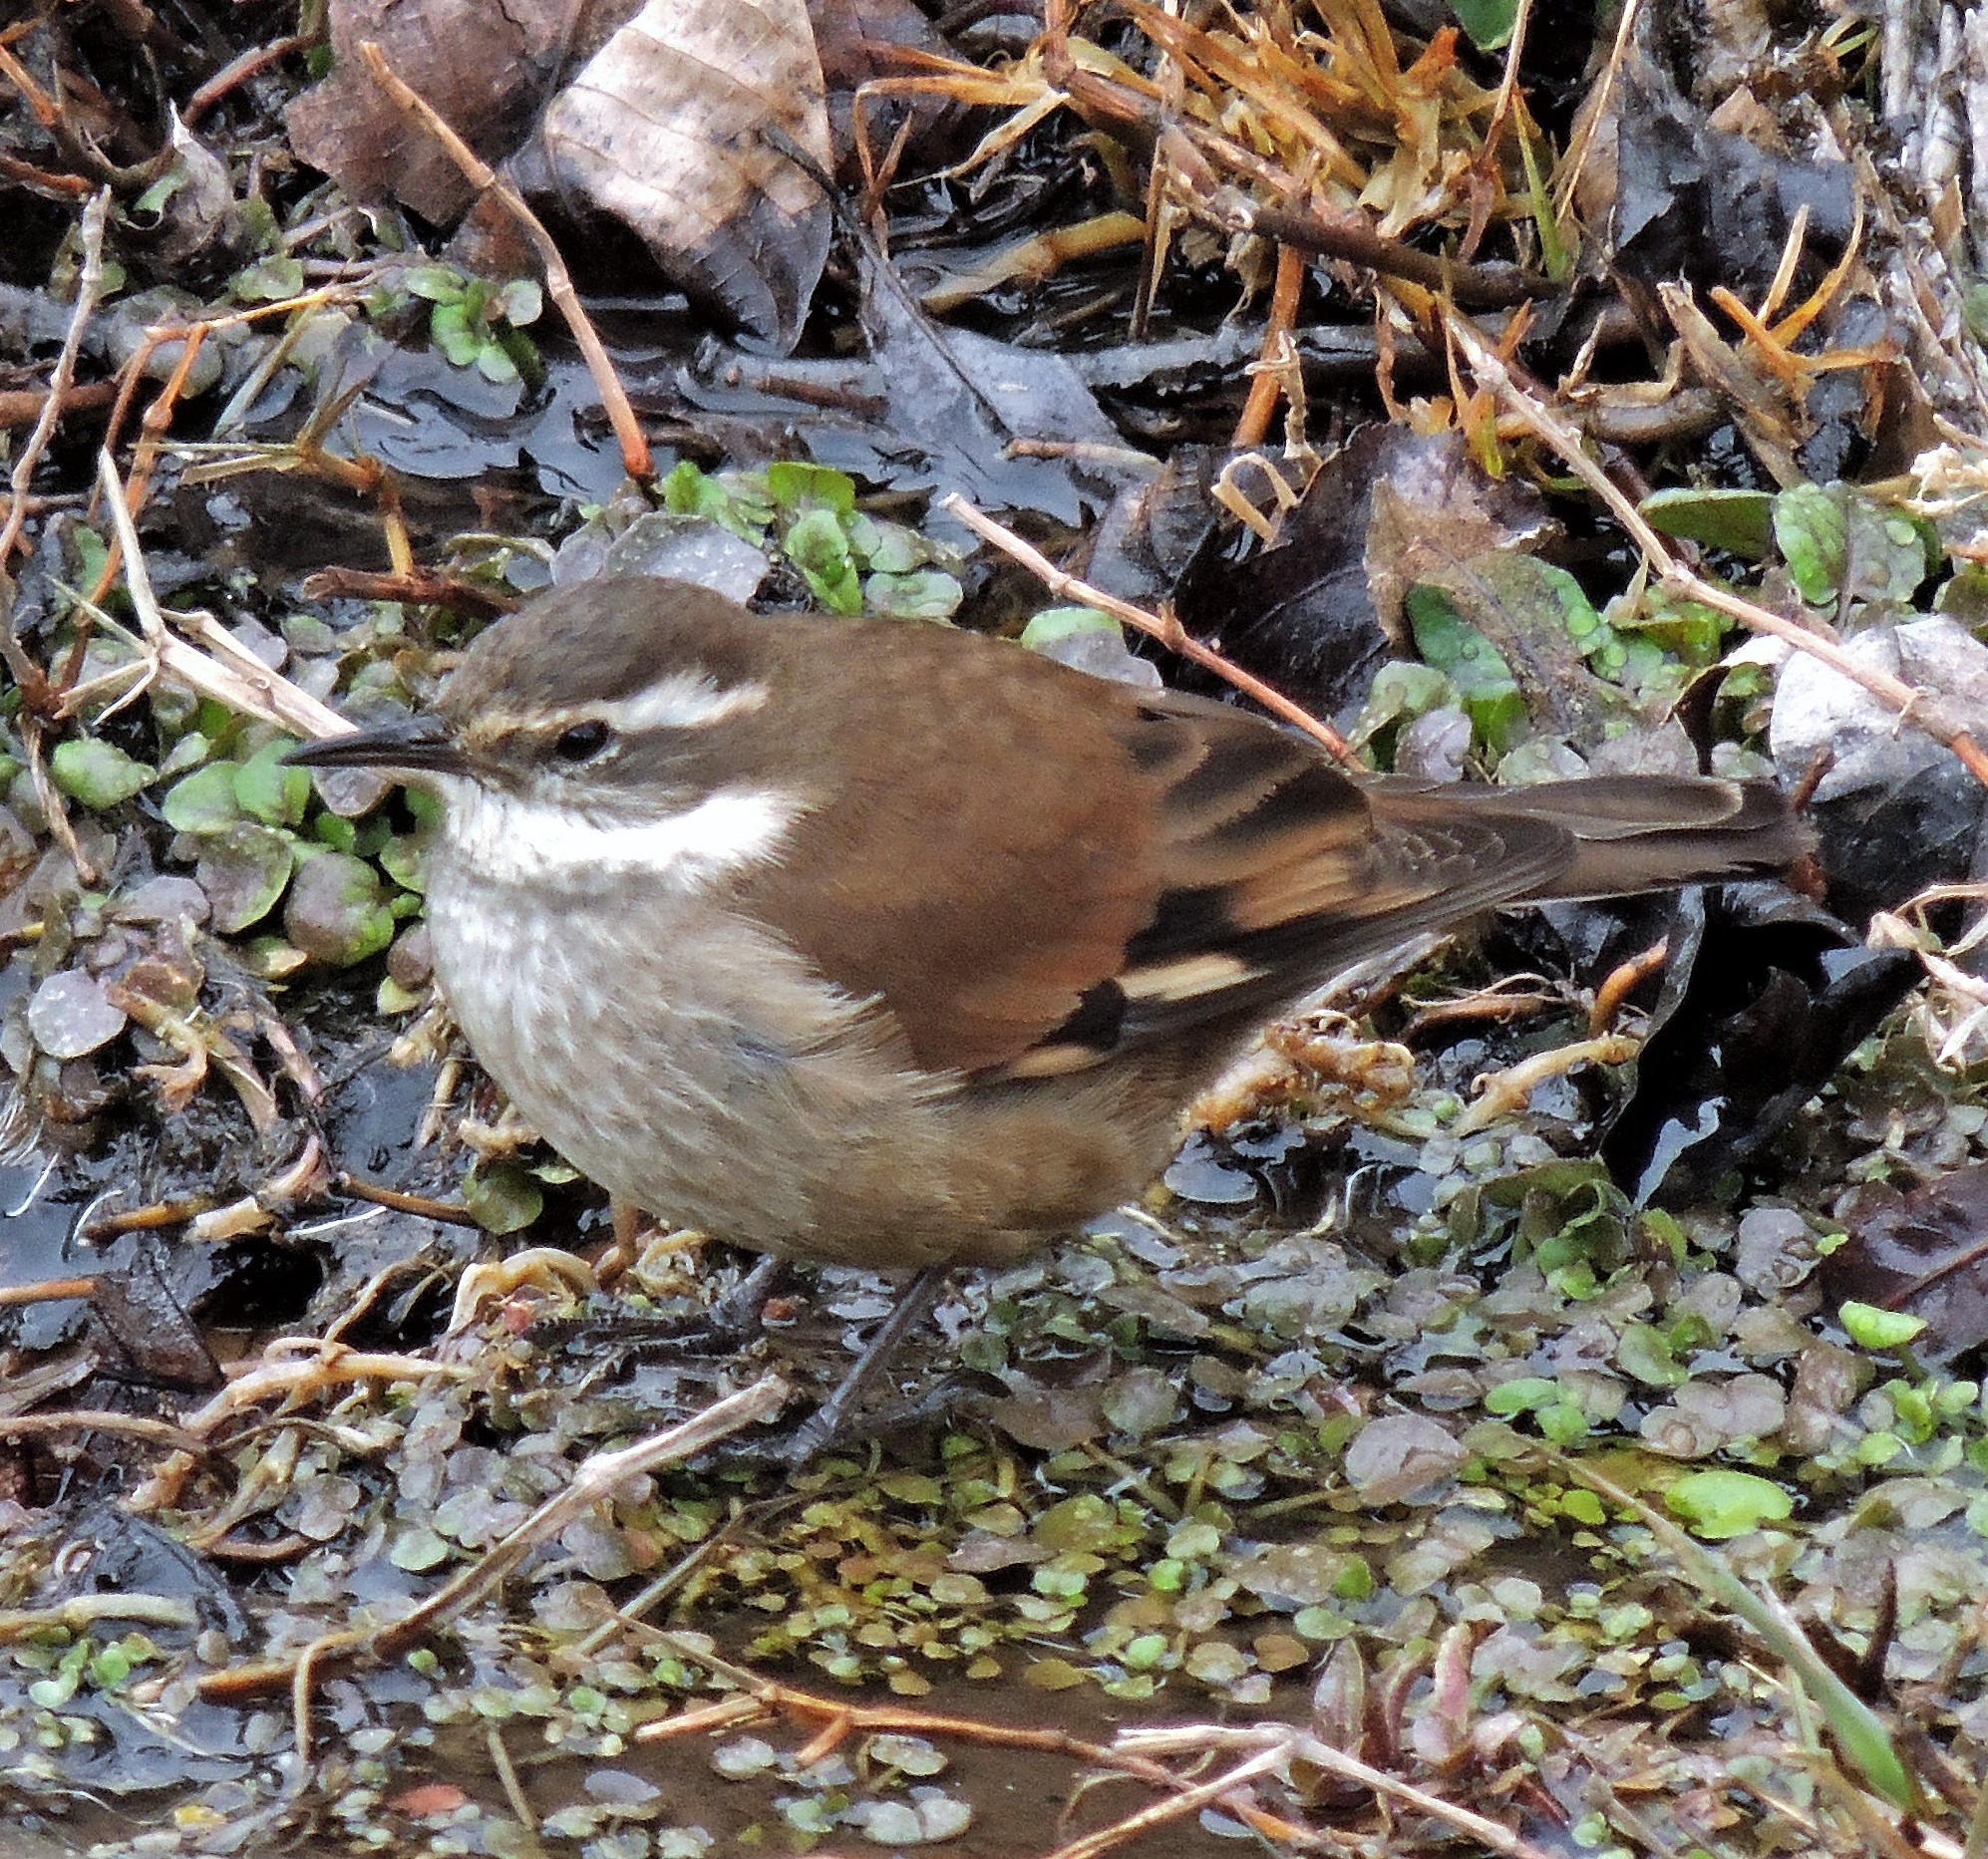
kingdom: Animalia
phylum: Chordata
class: Aves
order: Passeriformes
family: Furnariidae
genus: Cinclodes
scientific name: Cinclodes fuscus
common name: Buff-winged cinclodes
